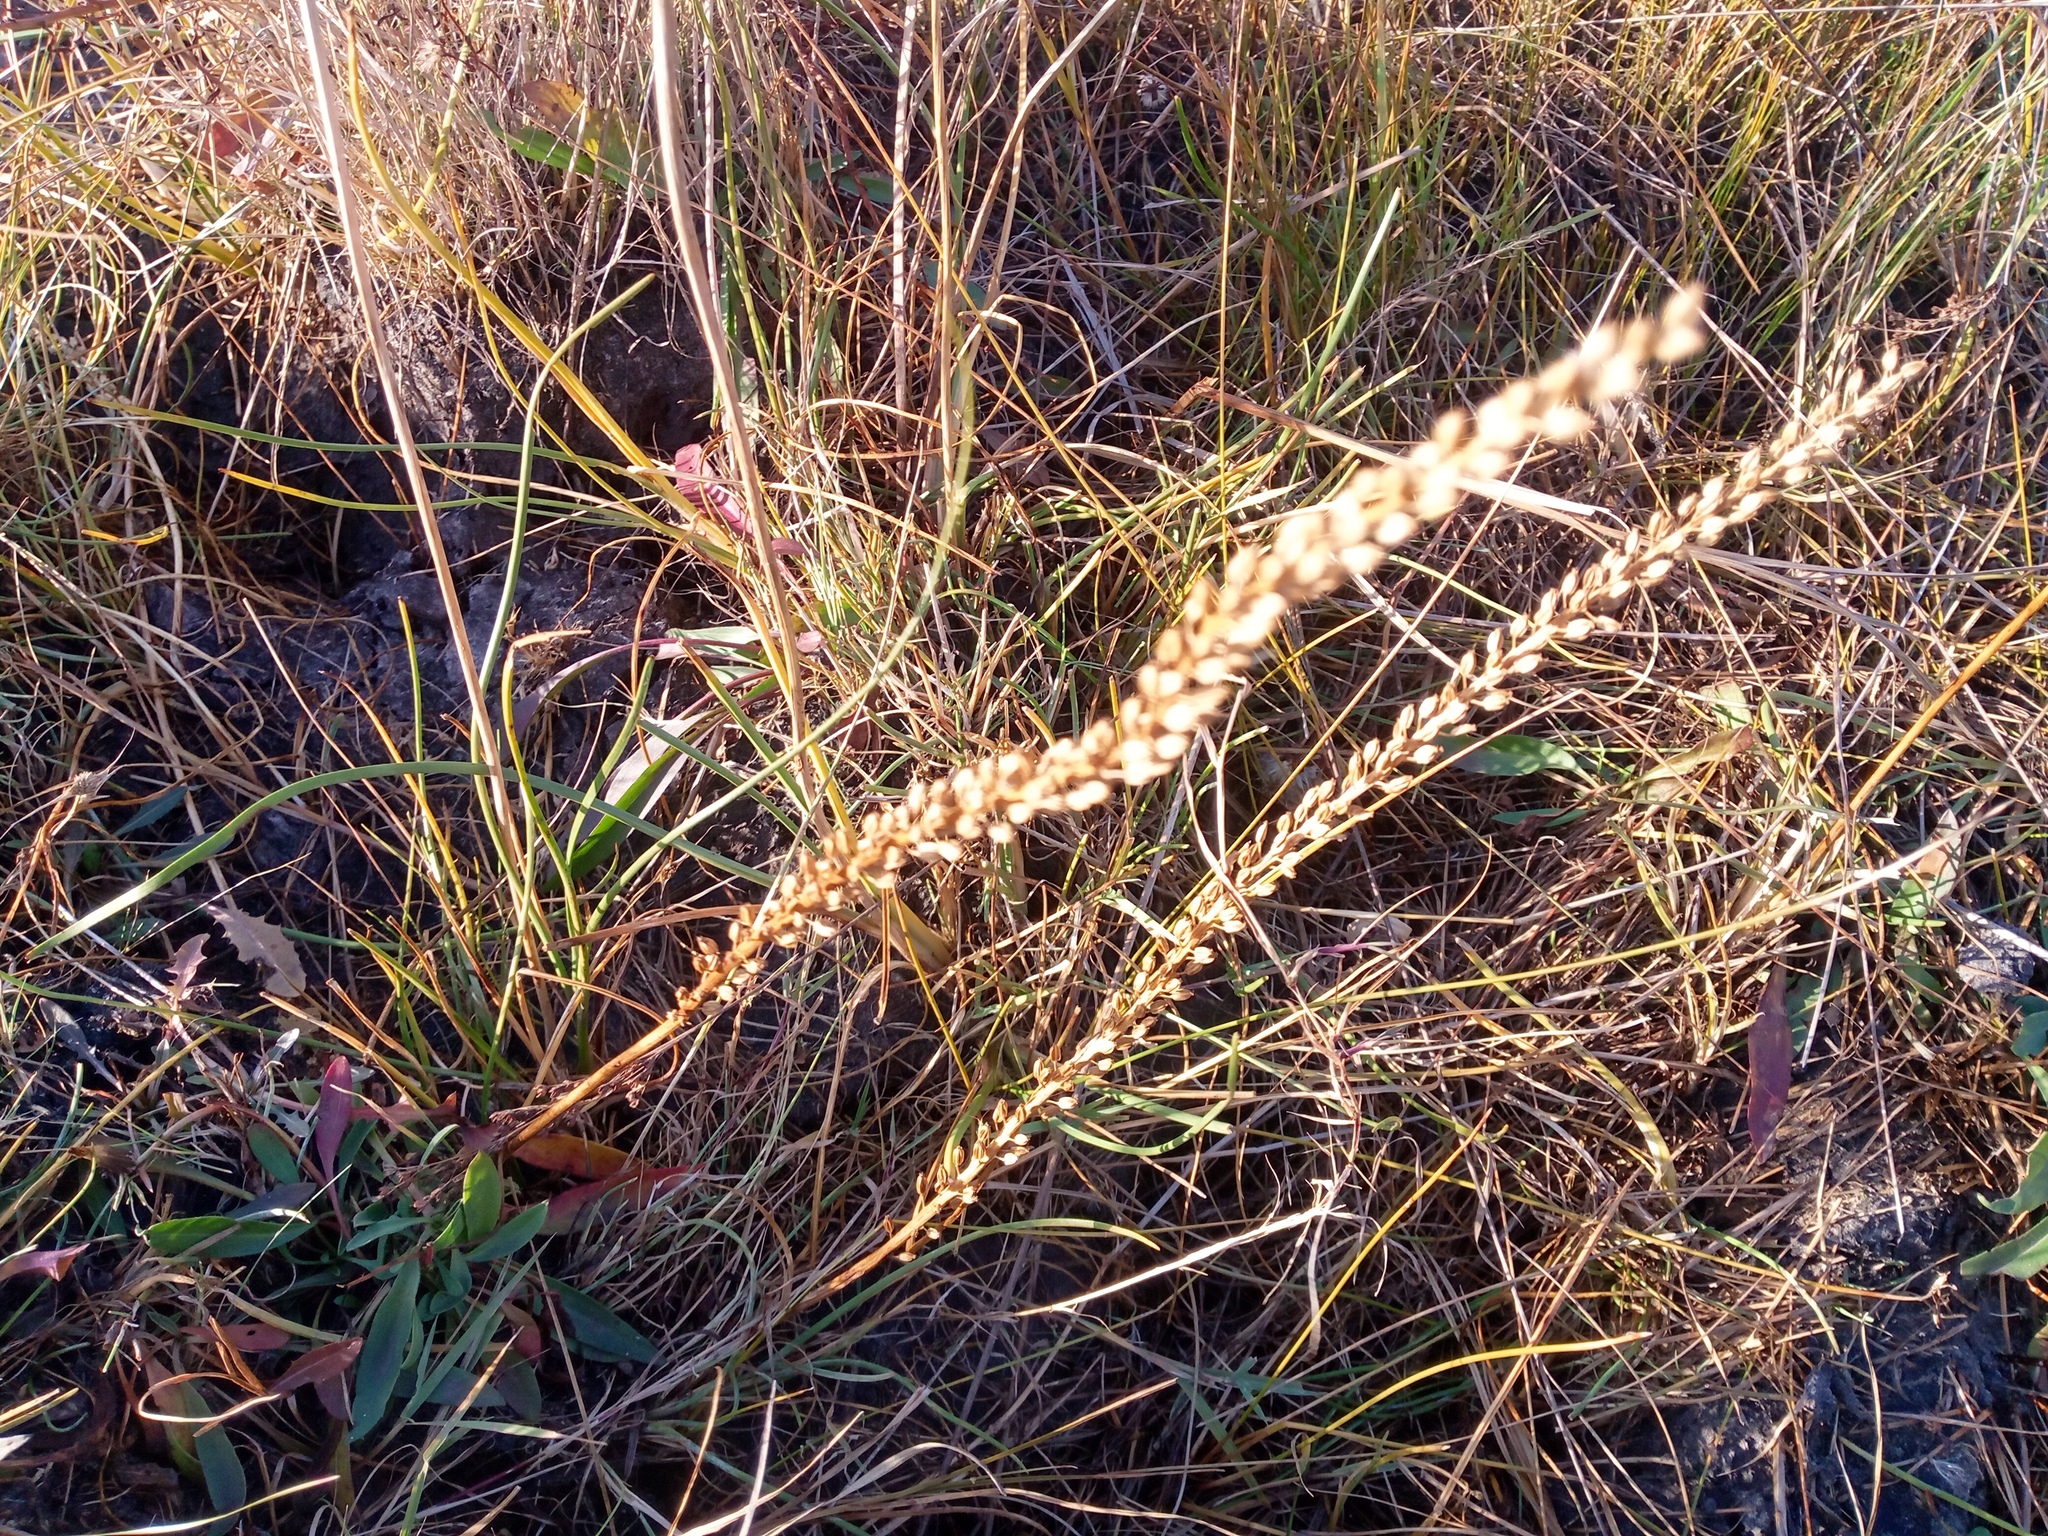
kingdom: Plantae
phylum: Tracheophyta
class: Liliopsida
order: Alismatales
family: Juncaginaceae
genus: Triglochin
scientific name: Triglochin maritima
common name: Sea arrowgrass
